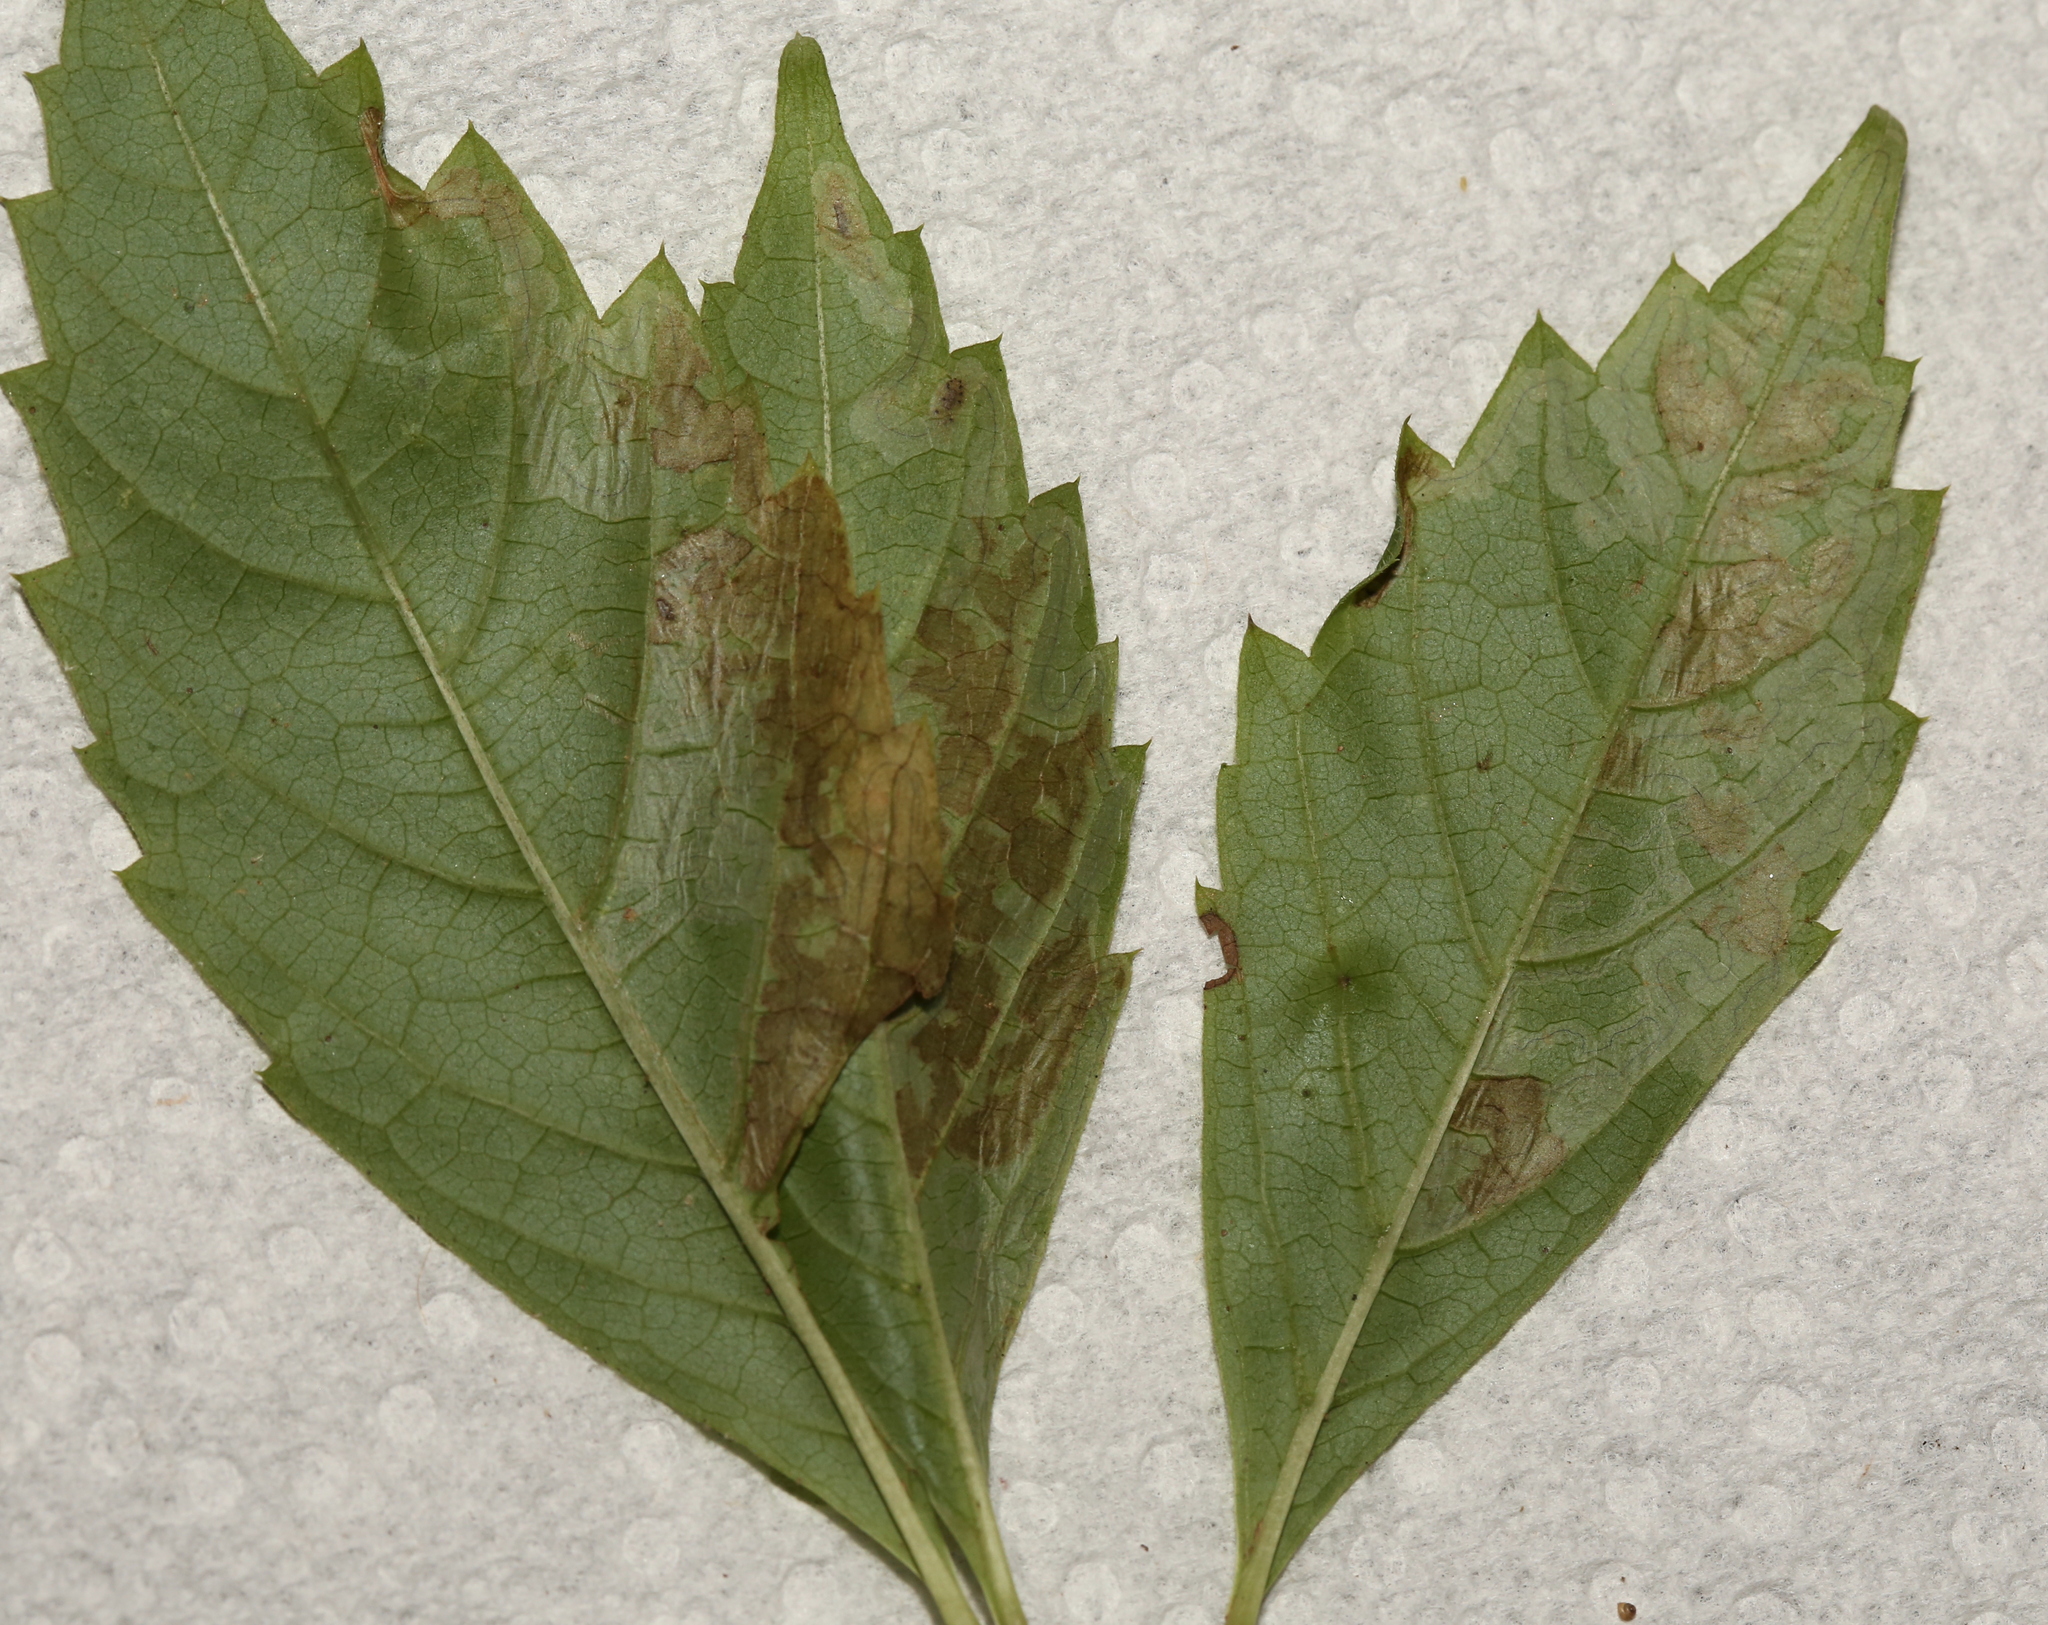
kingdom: Animalia
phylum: Arthropoda
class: Insecta
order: Lepidoptera
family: Gracillariidae
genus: Phyllocnistis
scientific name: Phyllocnistis ampelopsiella
